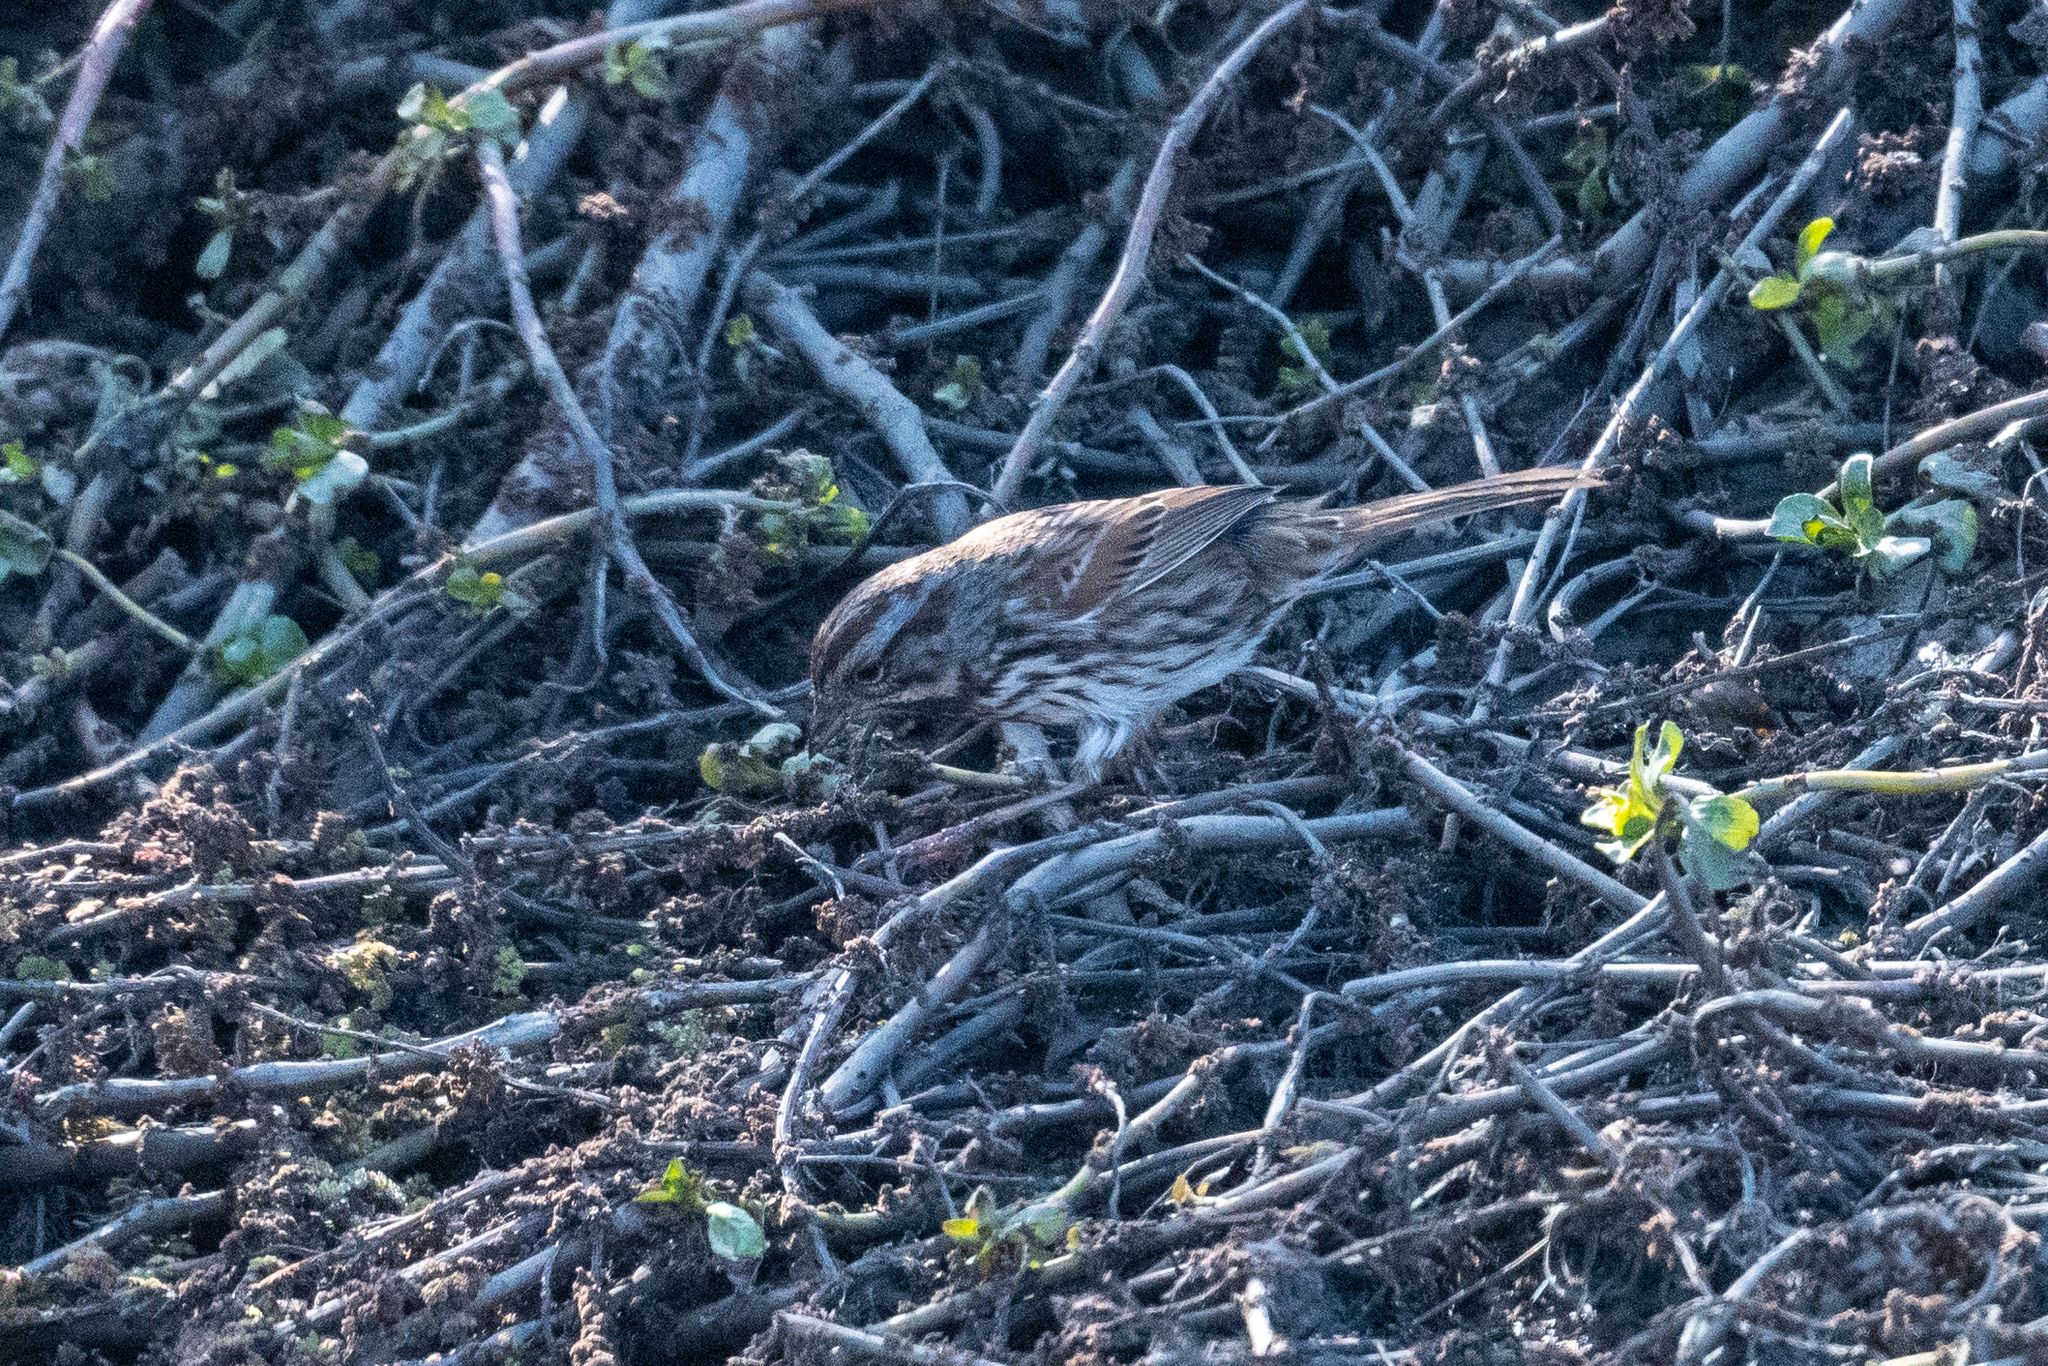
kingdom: Animalia
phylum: Chordata
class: Aves
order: Passeriformes
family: Passerellidae
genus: Melospiza
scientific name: Melospiza melodia
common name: Song sparrow
